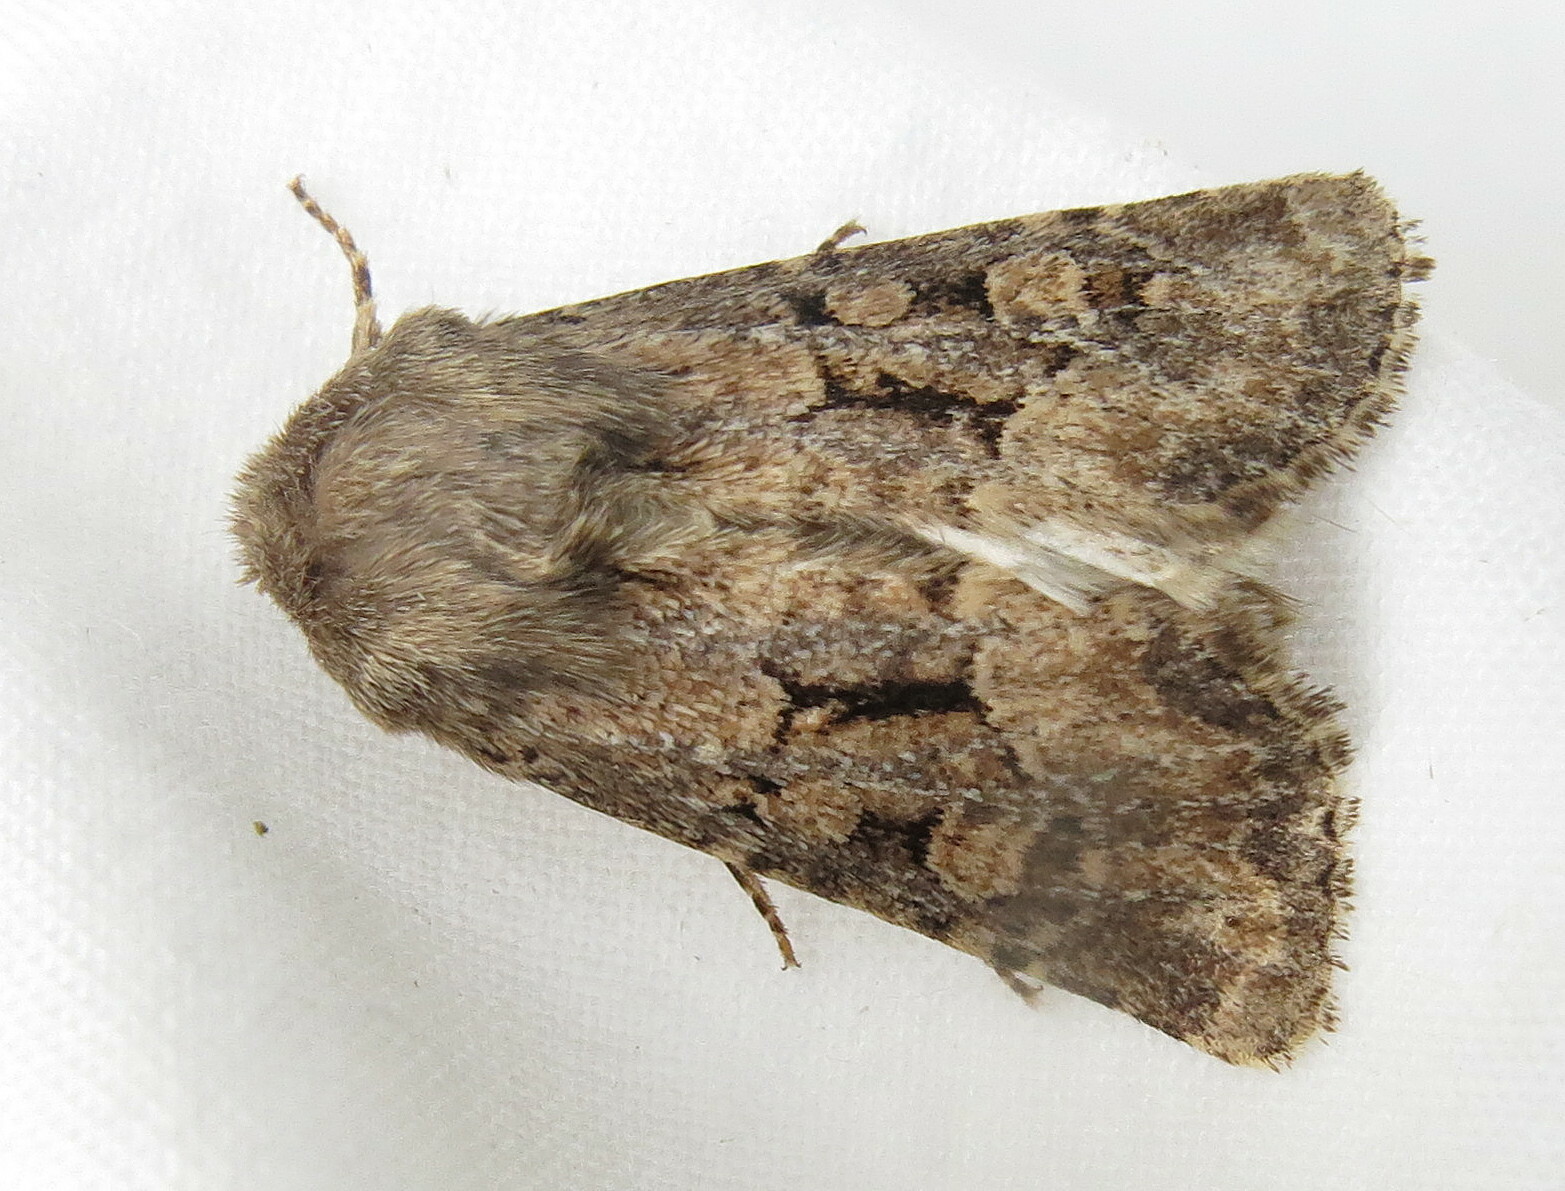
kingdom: Animalia
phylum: Arthropoda
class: Insecta
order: Lepidoptera
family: Noctuidae
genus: Luperina
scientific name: Luperina testacea
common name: Flounced rustic
